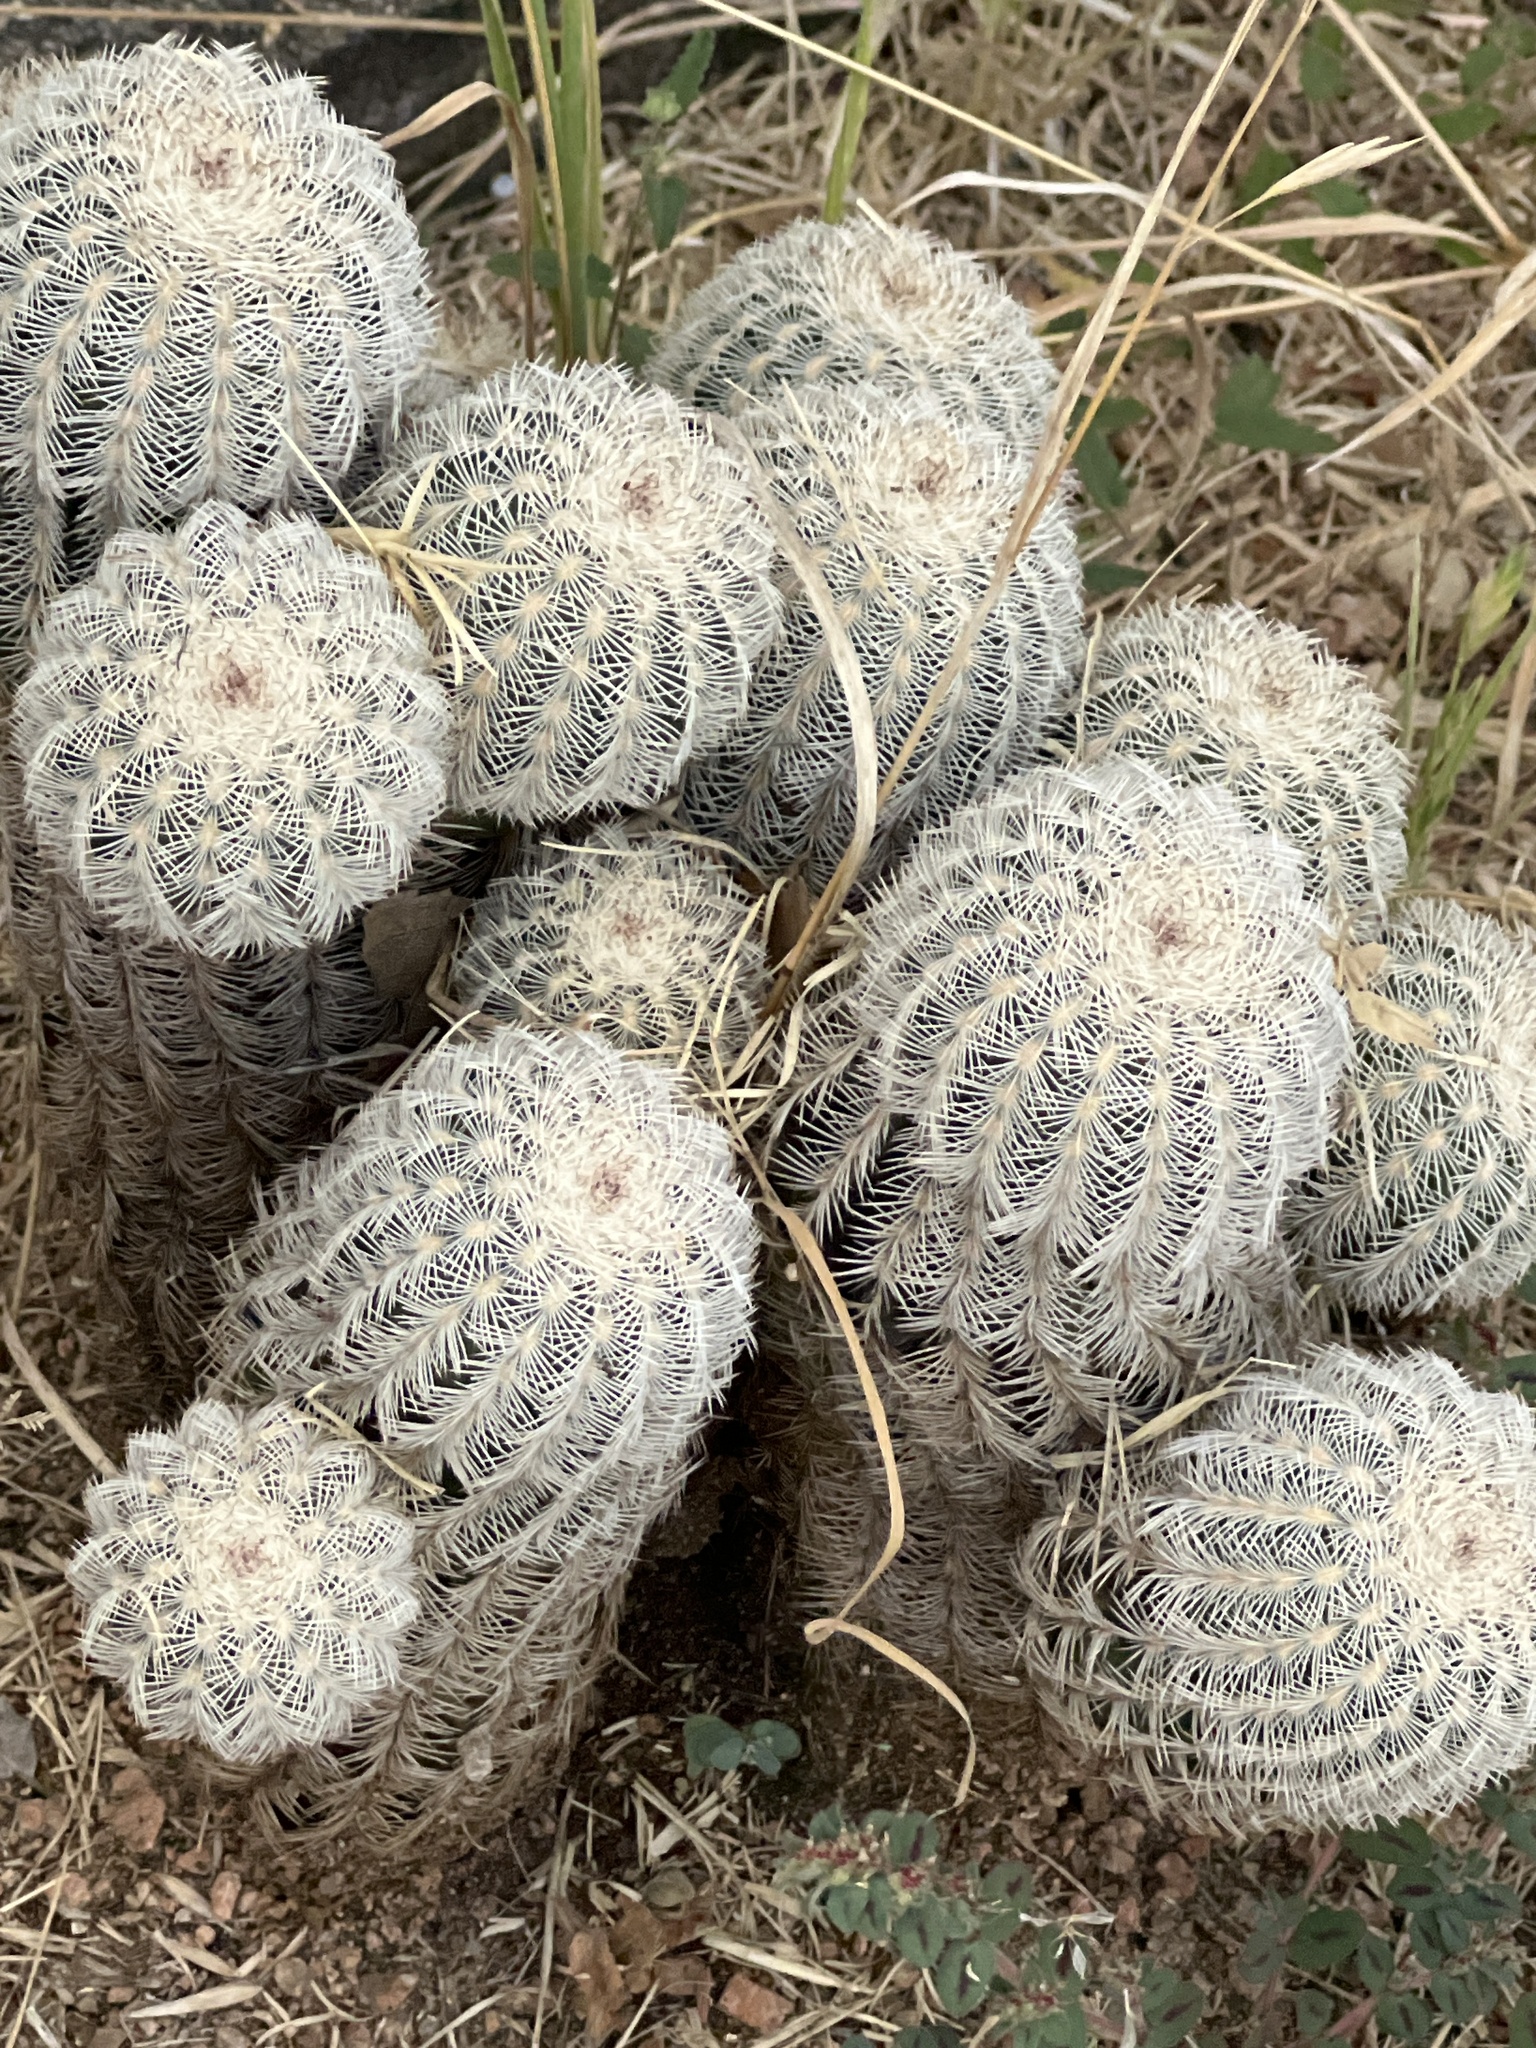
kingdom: Plantae
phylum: Tracheophyta
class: Magnoliopsida
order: Caryophyllales
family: Cactaceae
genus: Echinocereus
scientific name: Echinocereus reichenbachii
